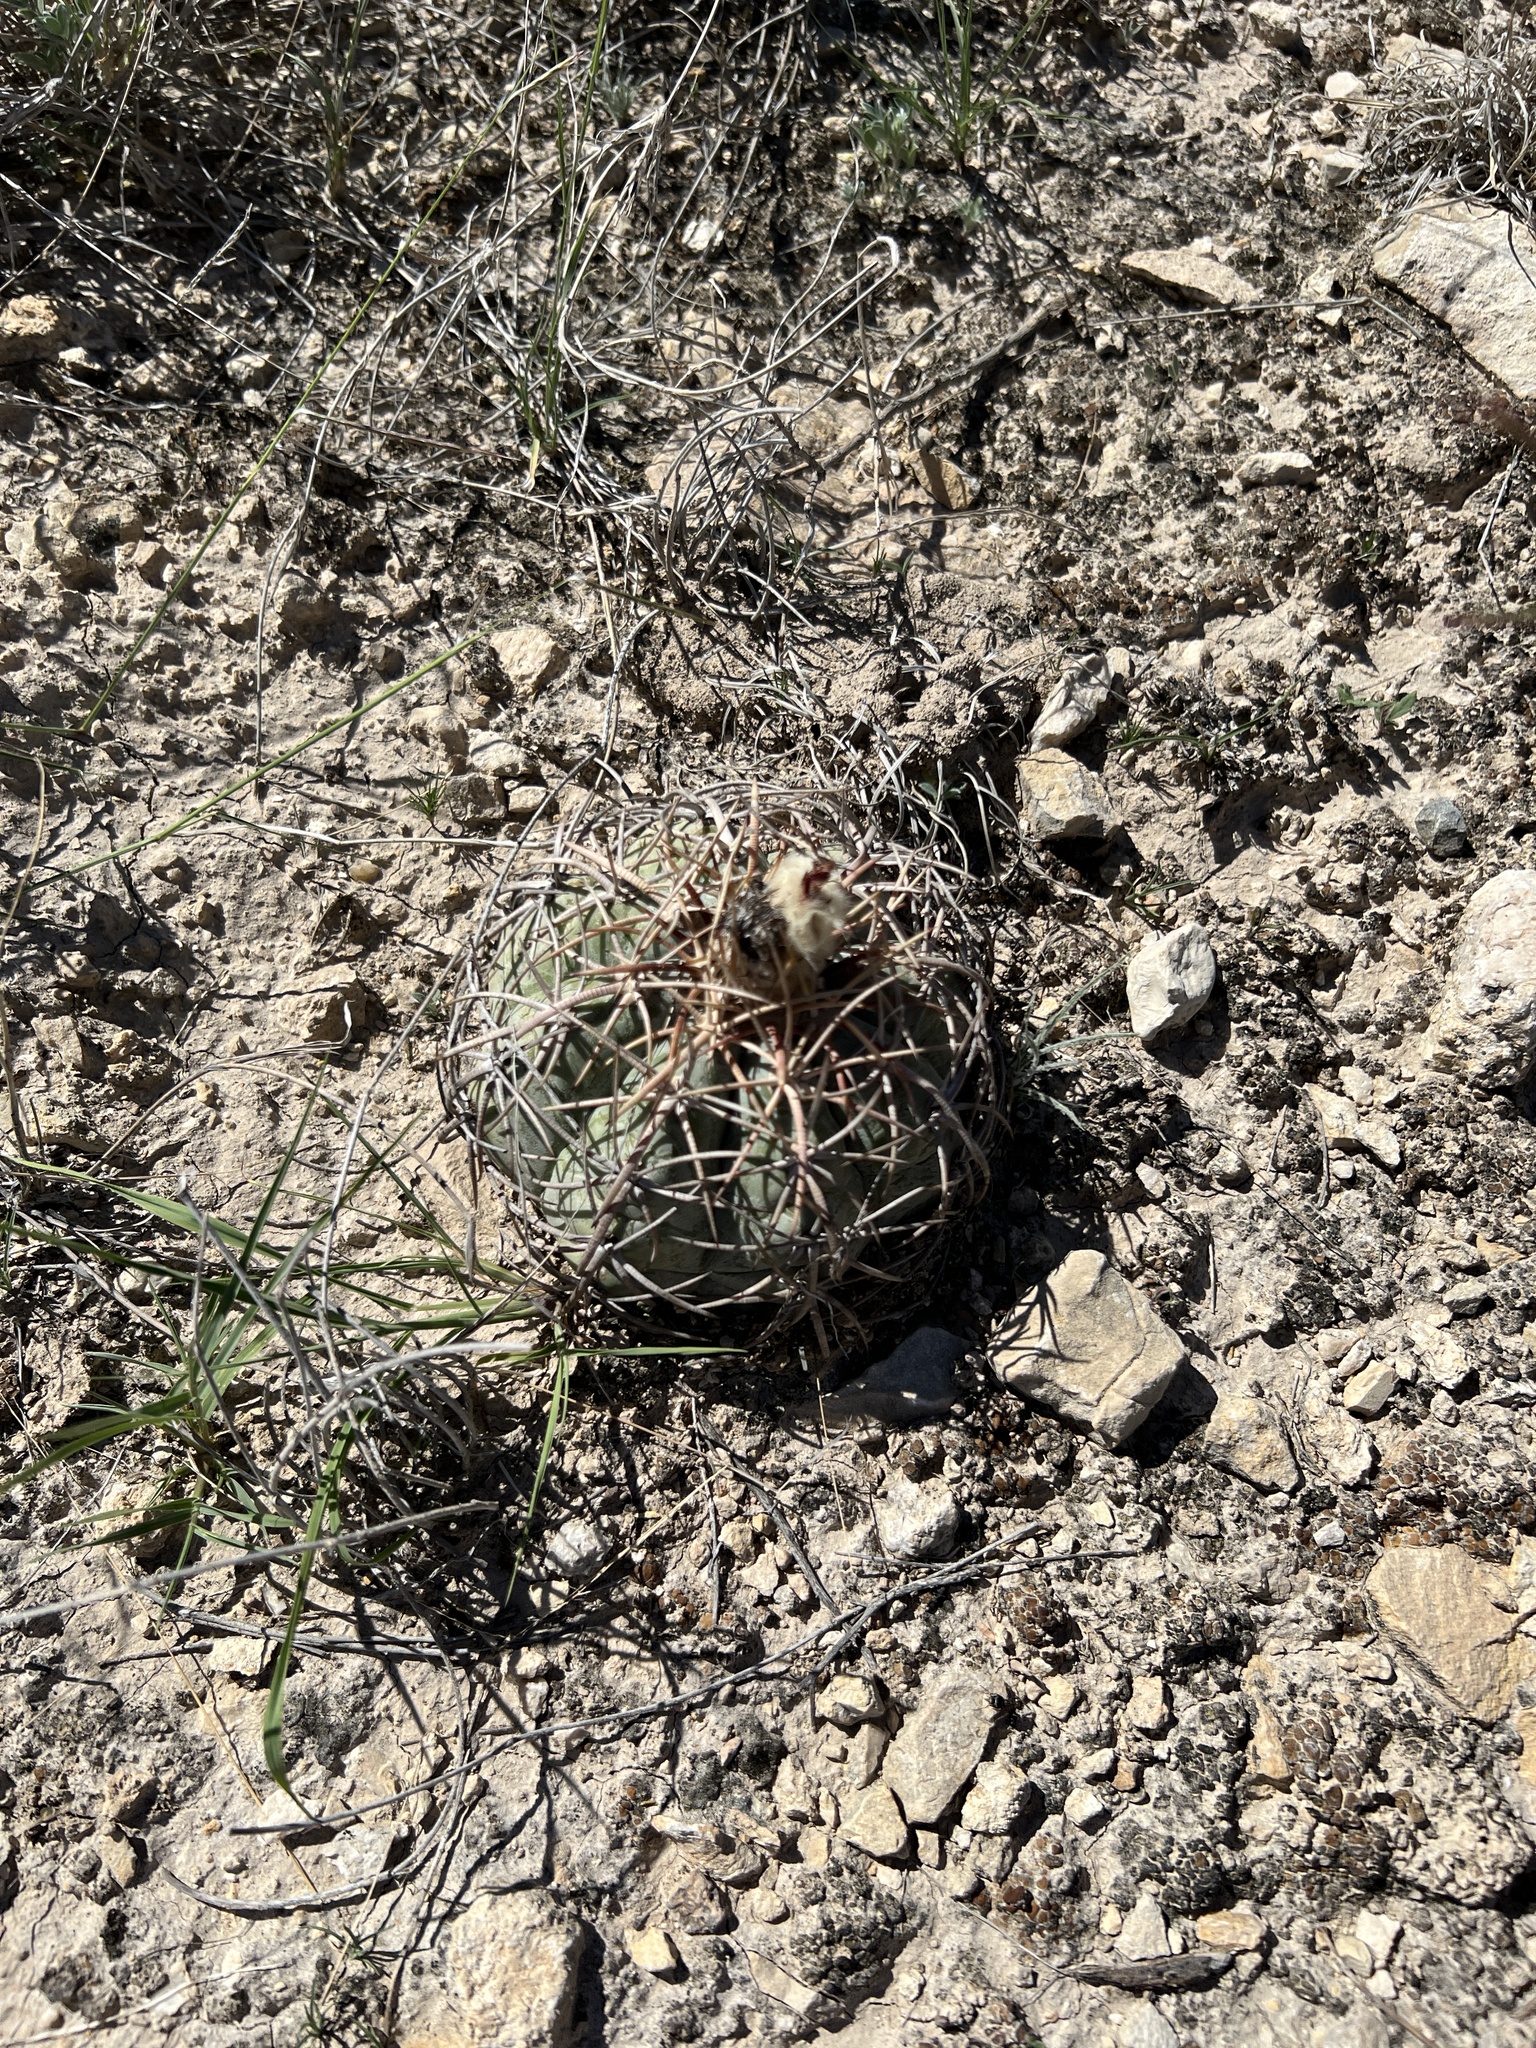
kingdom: Plantae
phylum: Tracheophyta
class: Magnoliopsida
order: Caryophyllales
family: Cactaceae
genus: Echinocactus
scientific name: Echinocactus horizonthalonius
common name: Devilshead
